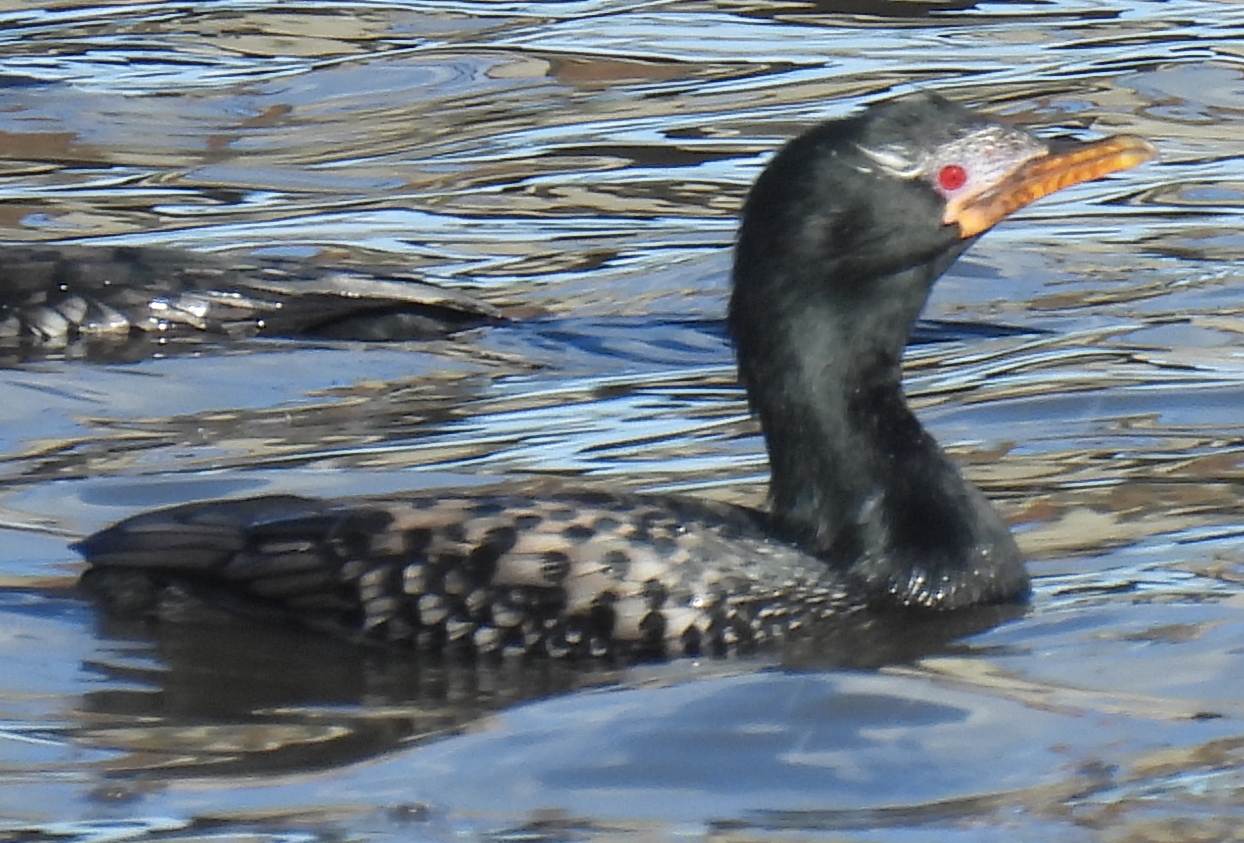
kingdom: Animalia
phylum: Chordata
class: Aves
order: Suliformes
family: Phalacrocoracidae
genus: Microcarbo
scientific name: Microcarbo africanus
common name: Long-tailed cormorant
